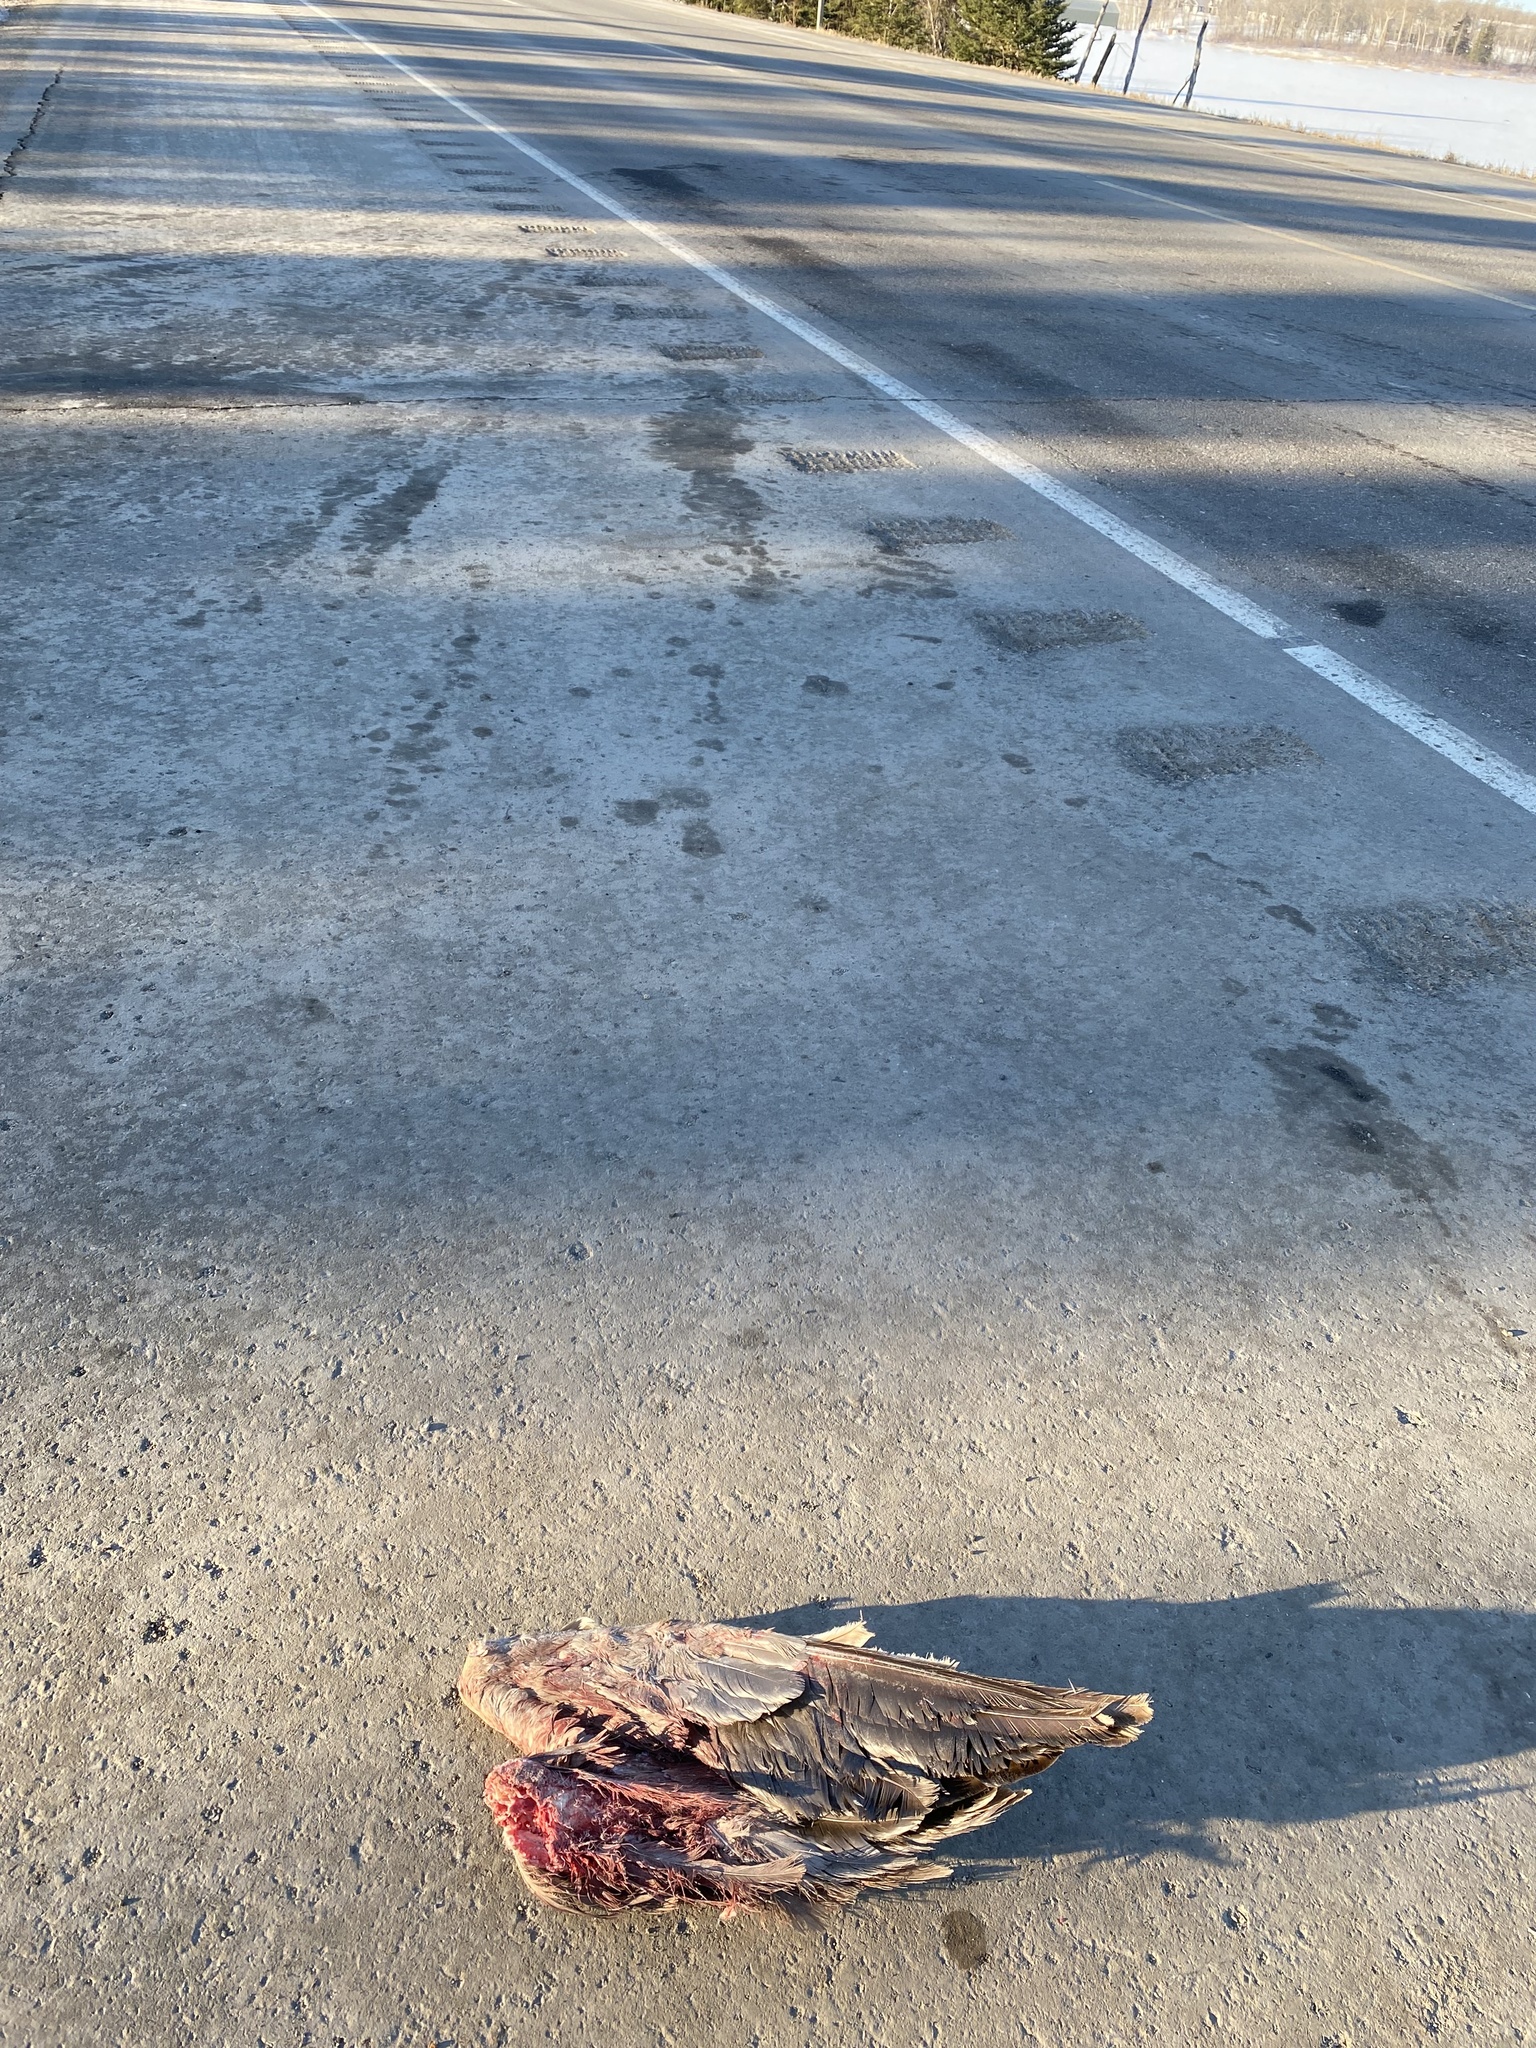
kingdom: Animalia
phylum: Chordata
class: Aves
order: Anseriformes
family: Anatidae
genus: Branta
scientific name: Branta canadensis
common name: Canada goose
